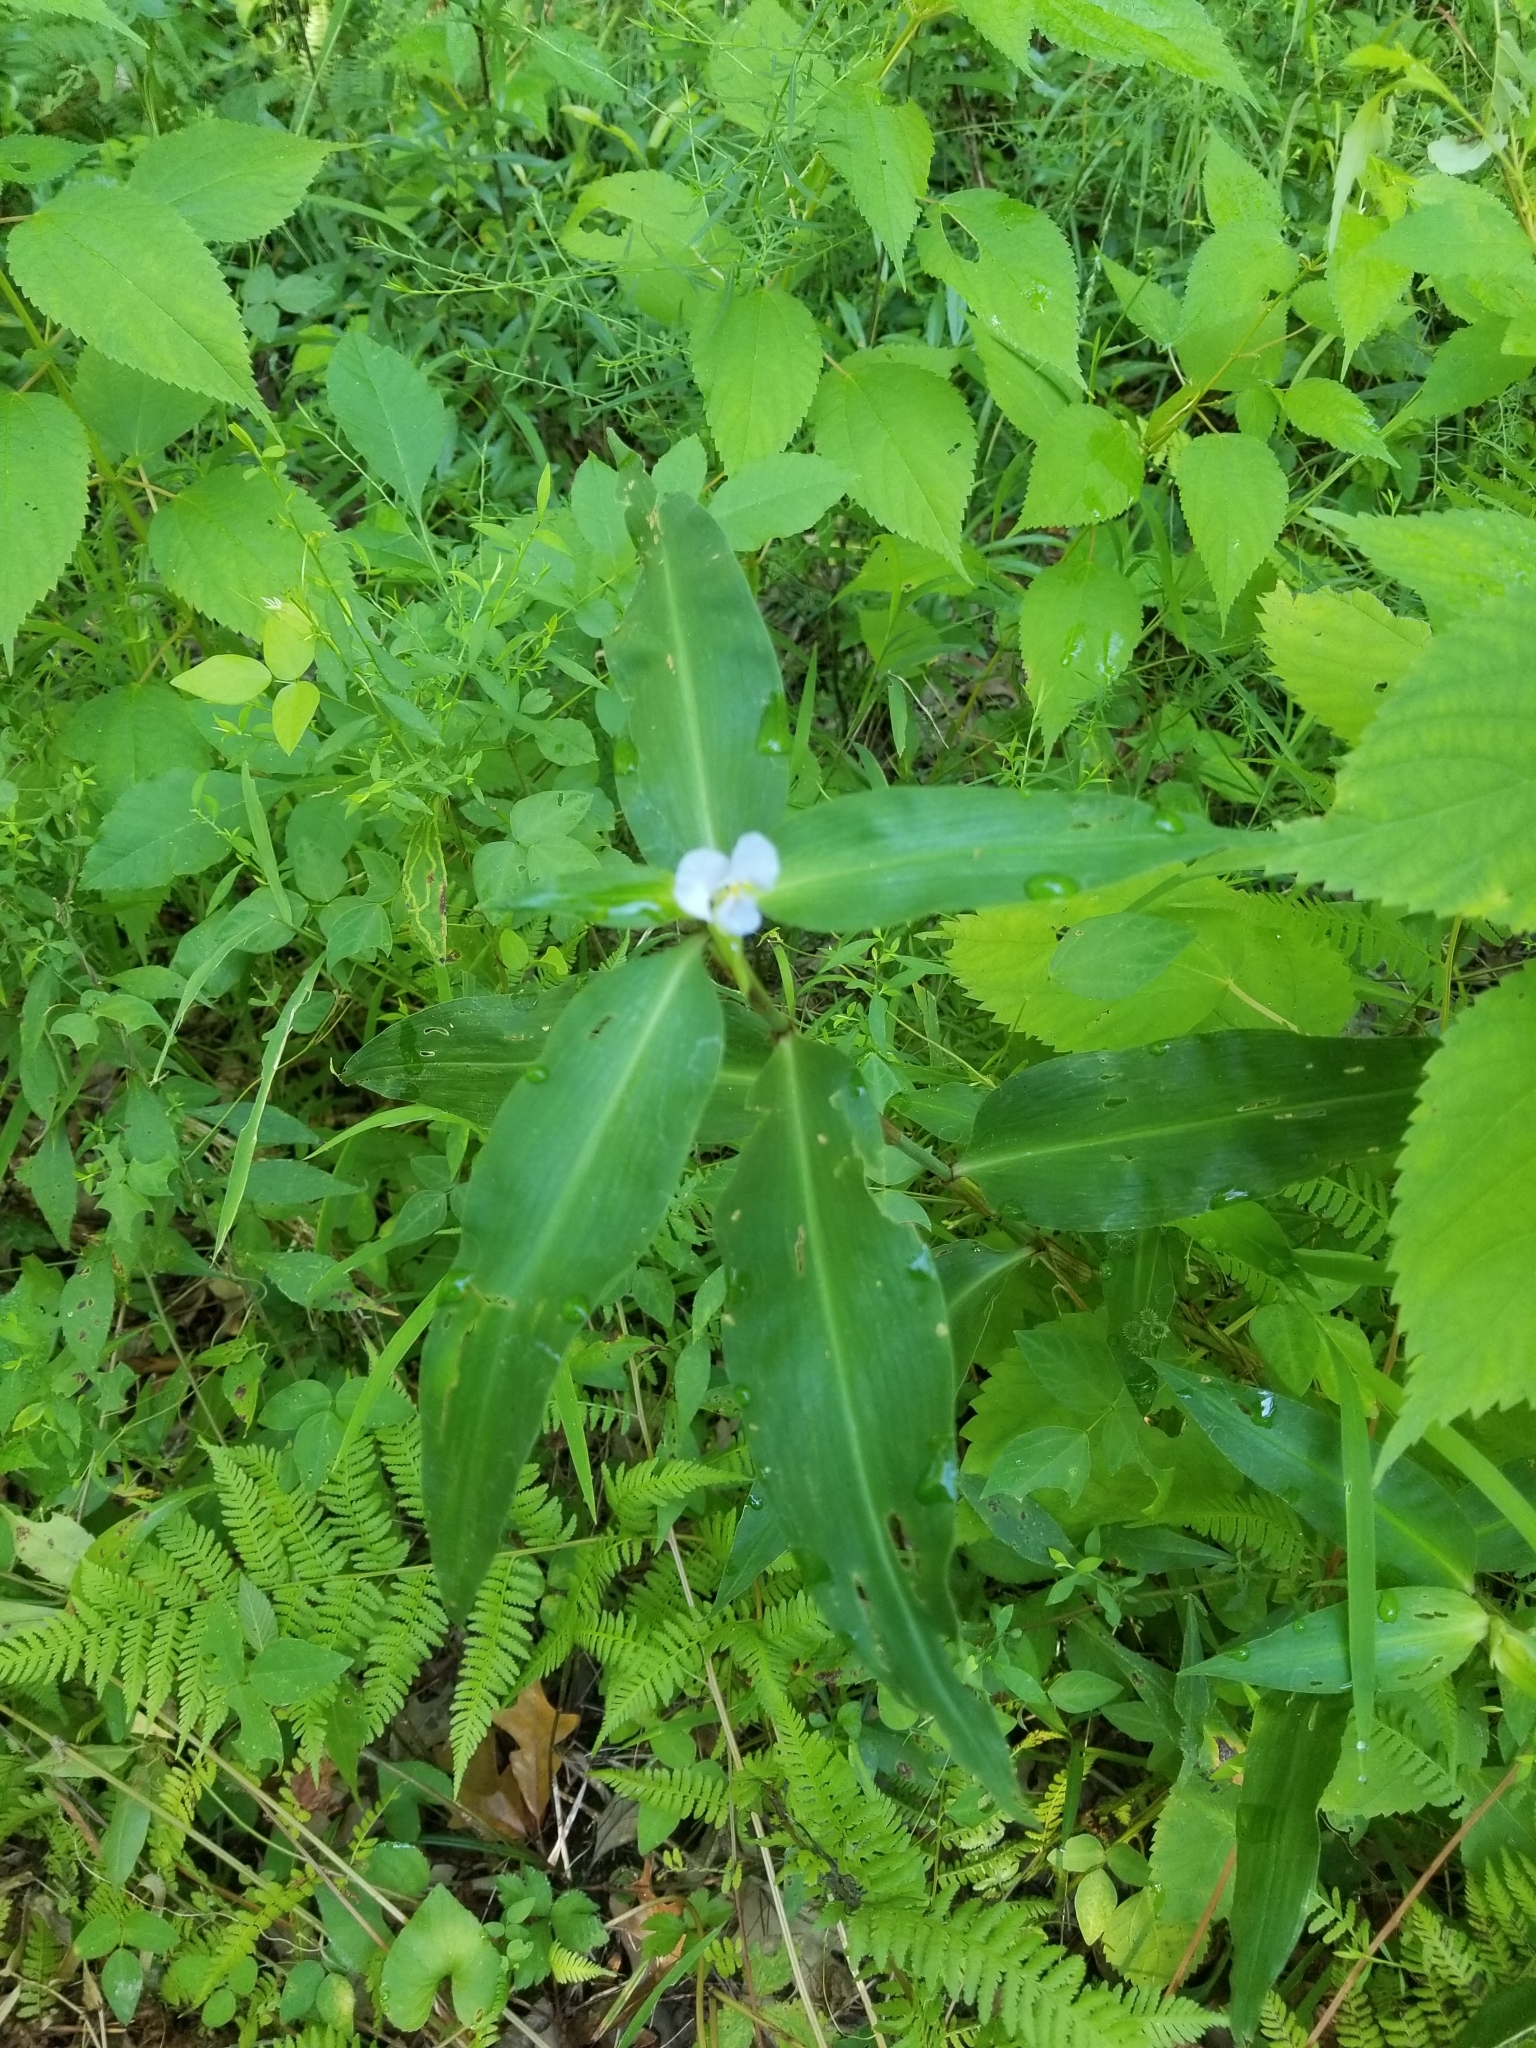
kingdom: Plantae
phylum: Tracheophyta
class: Liliopsida
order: Commelinales
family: Commelinaceae
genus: Commelina
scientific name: Commelina virginica
